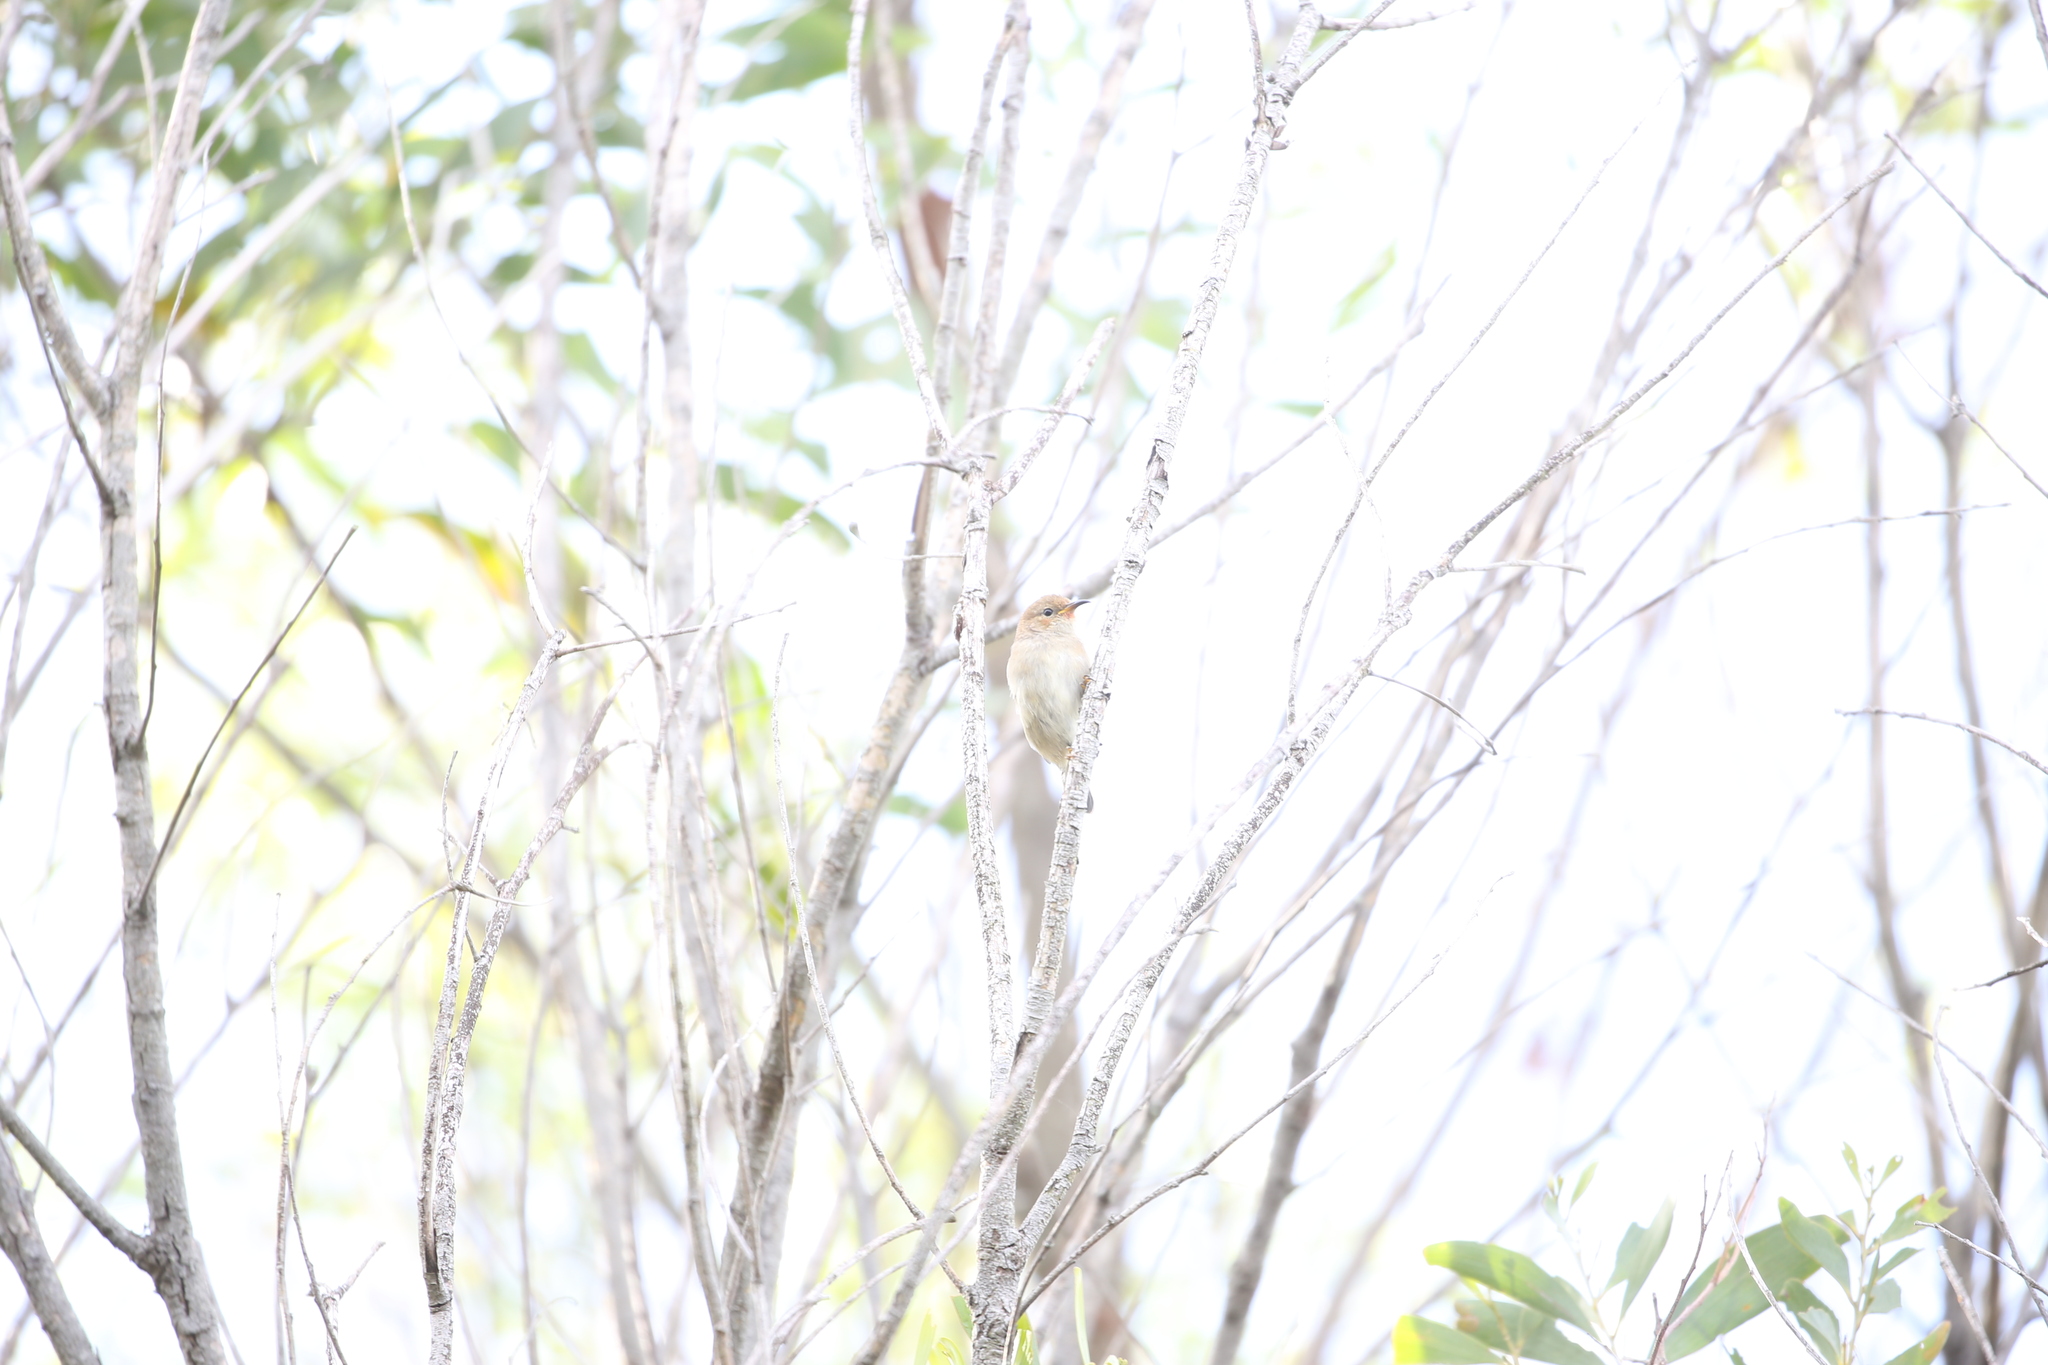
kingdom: Animalia
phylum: Chordata
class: Aves
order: Passeriformes
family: Meliphagidae
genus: Myzomela
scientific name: Myzomela sanguinolenta
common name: Scarlet myzomela
